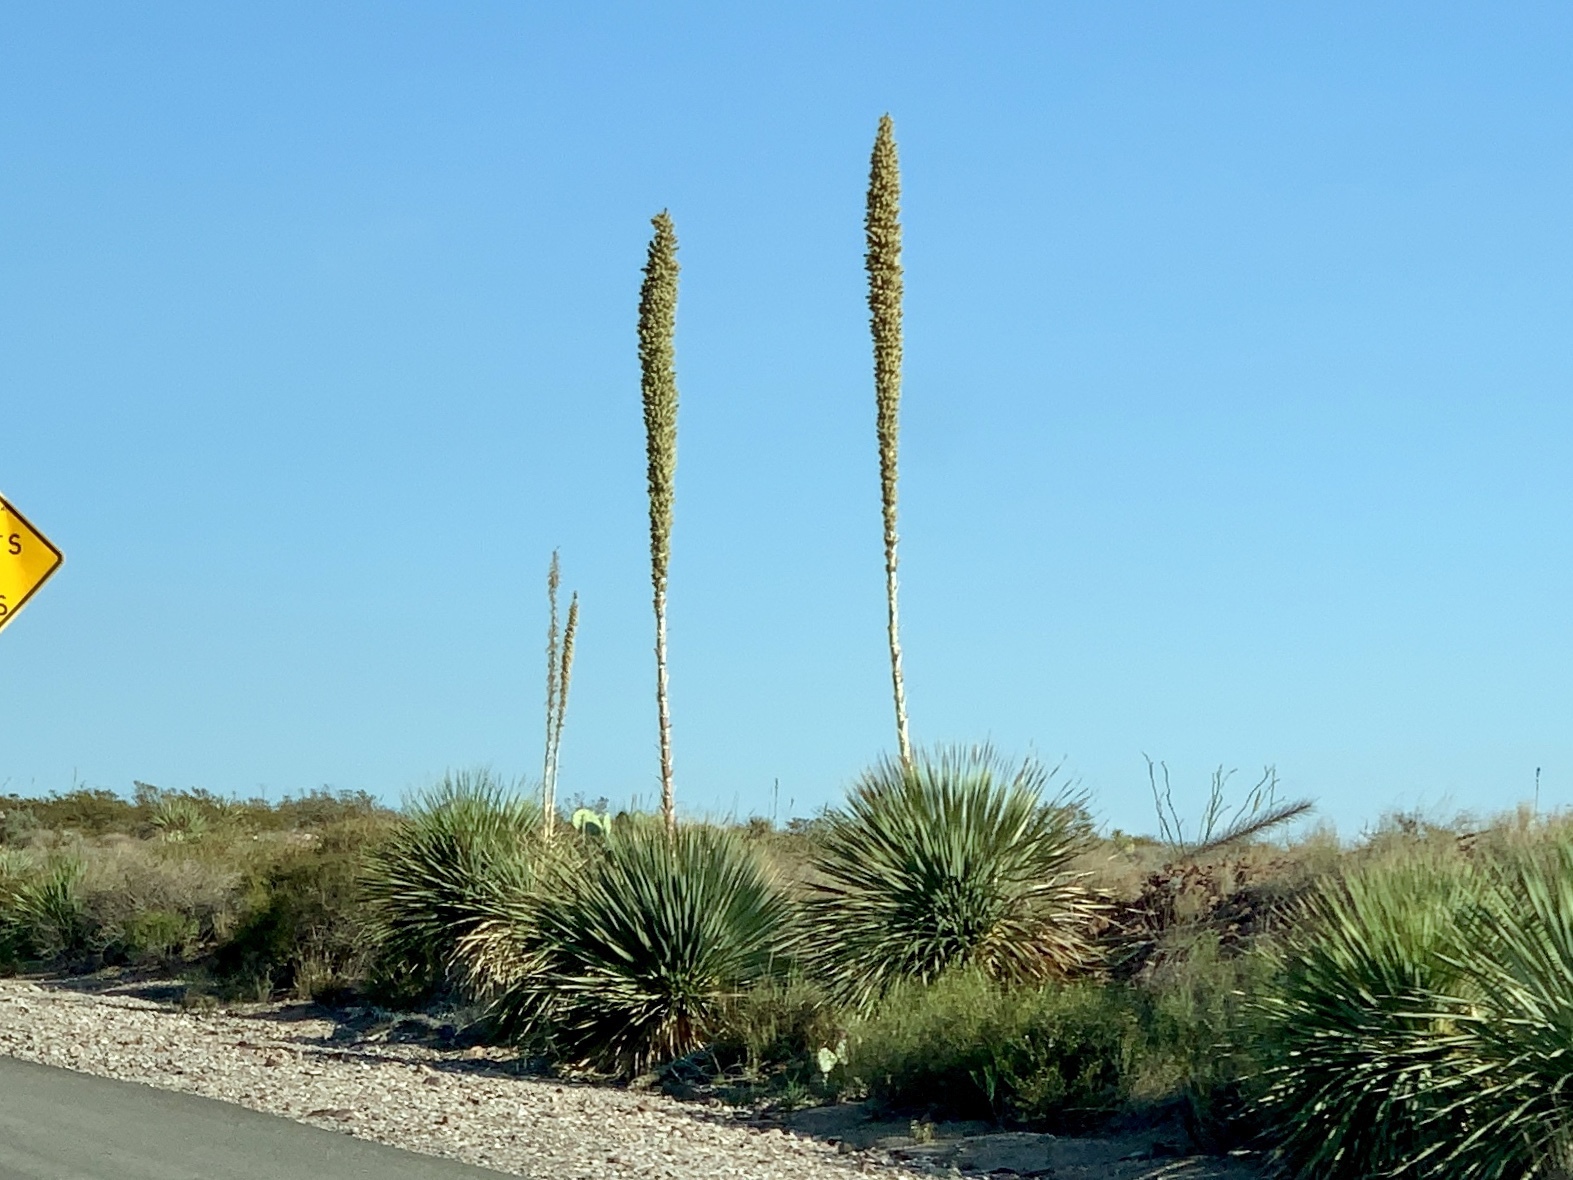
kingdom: Plantae
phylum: Tracheophyta
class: Liliopsida
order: Asparagales
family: Asparagaceae
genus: Dasylirion
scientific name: Dasylirion wheeleri
